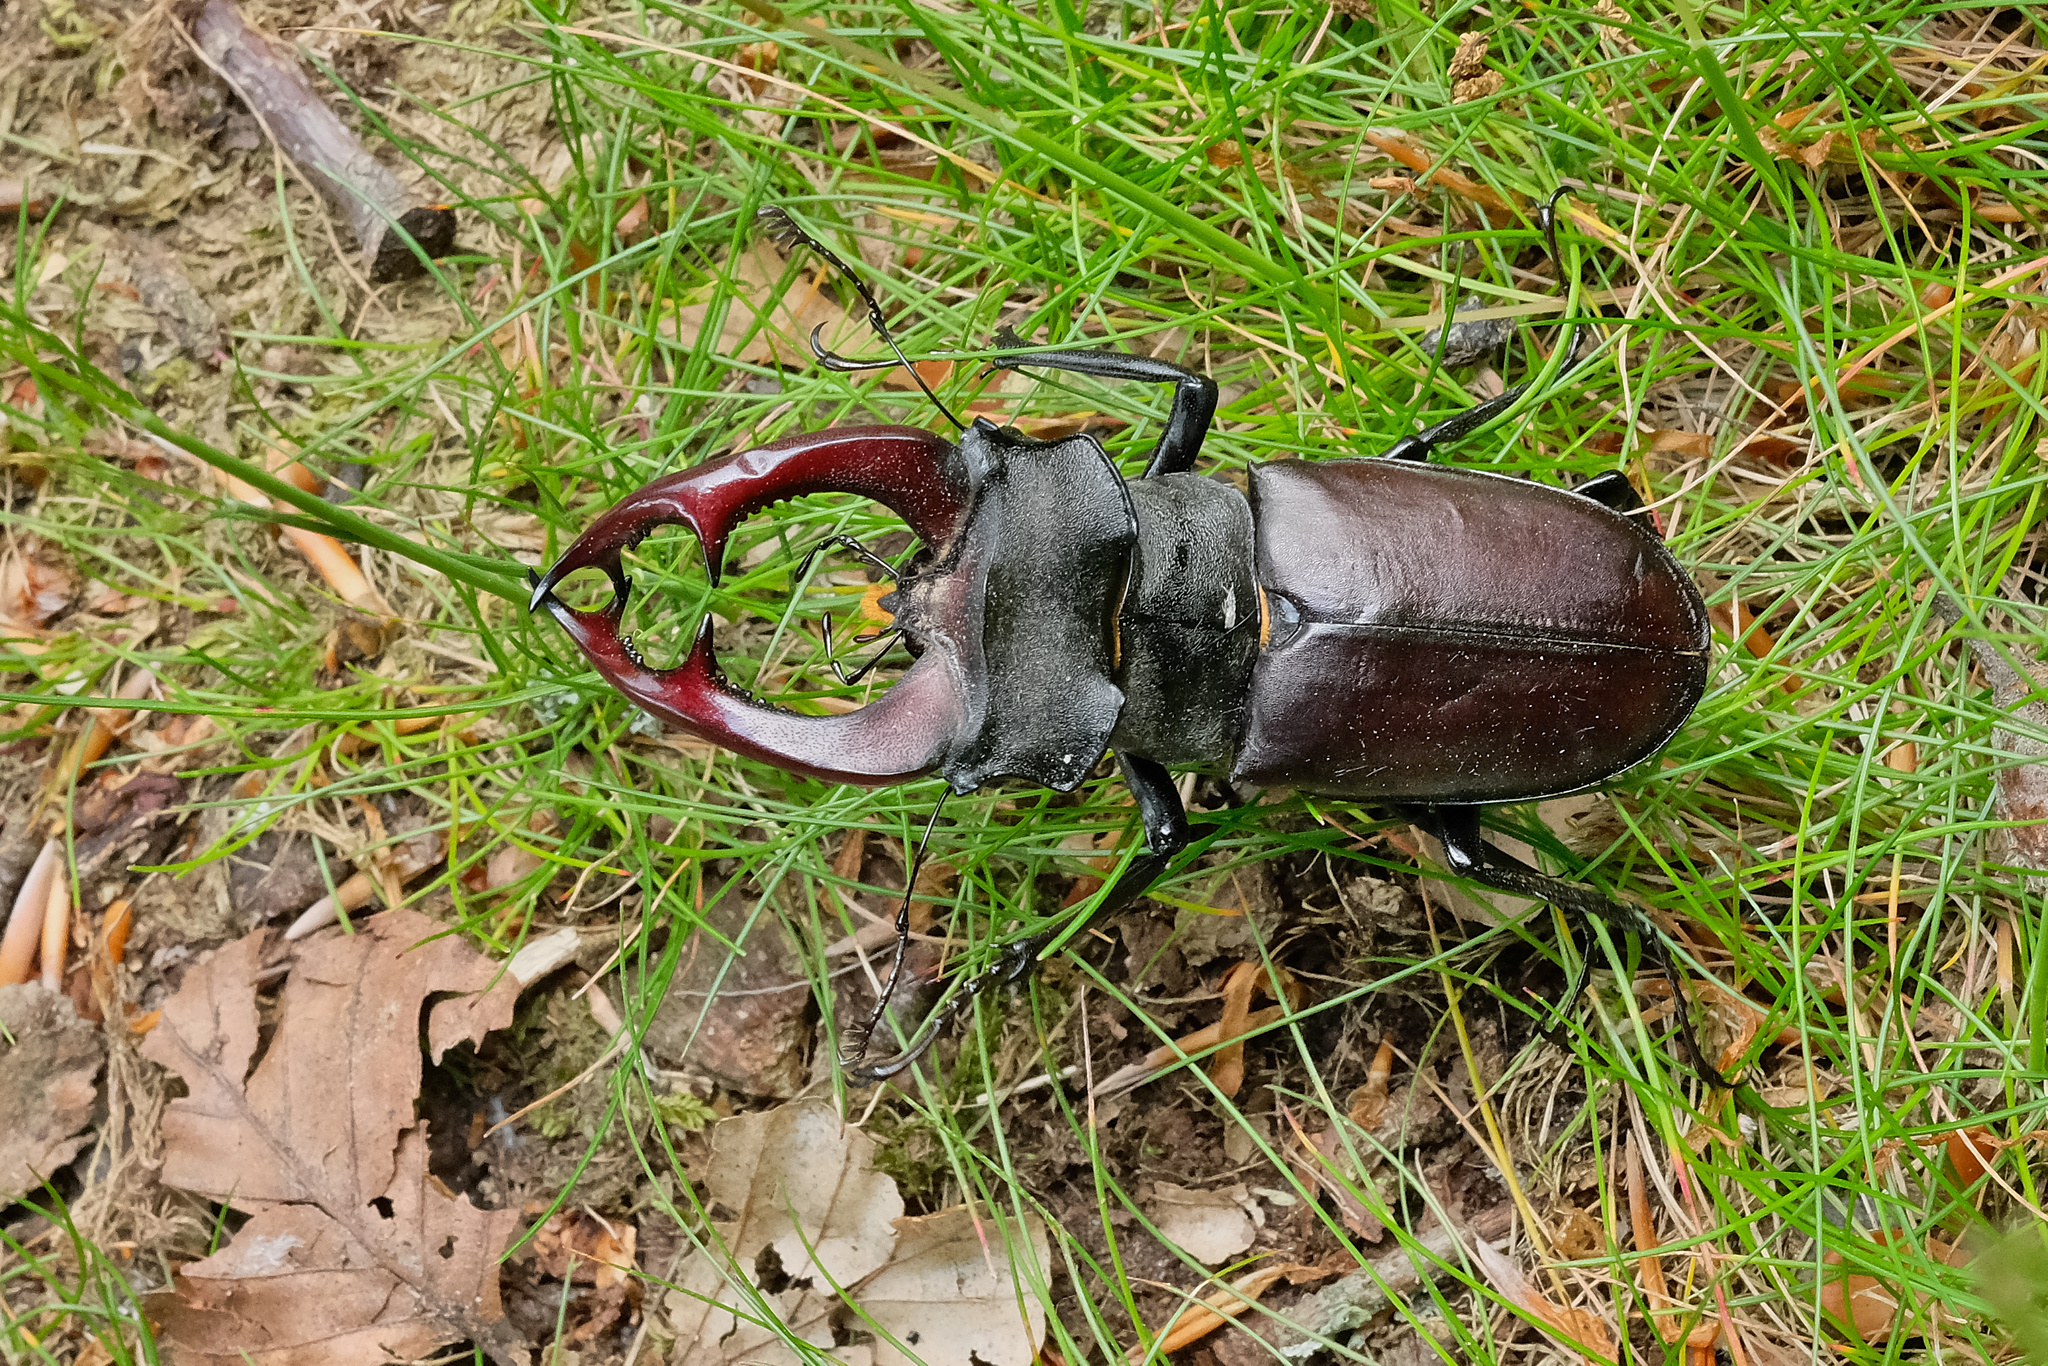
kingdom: Animalia
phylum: Arthropoda
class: Insecta
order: Coleoptera
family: Lucanidae
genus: Lucanus
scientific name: Lucanus cervus
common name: Stag beetle
